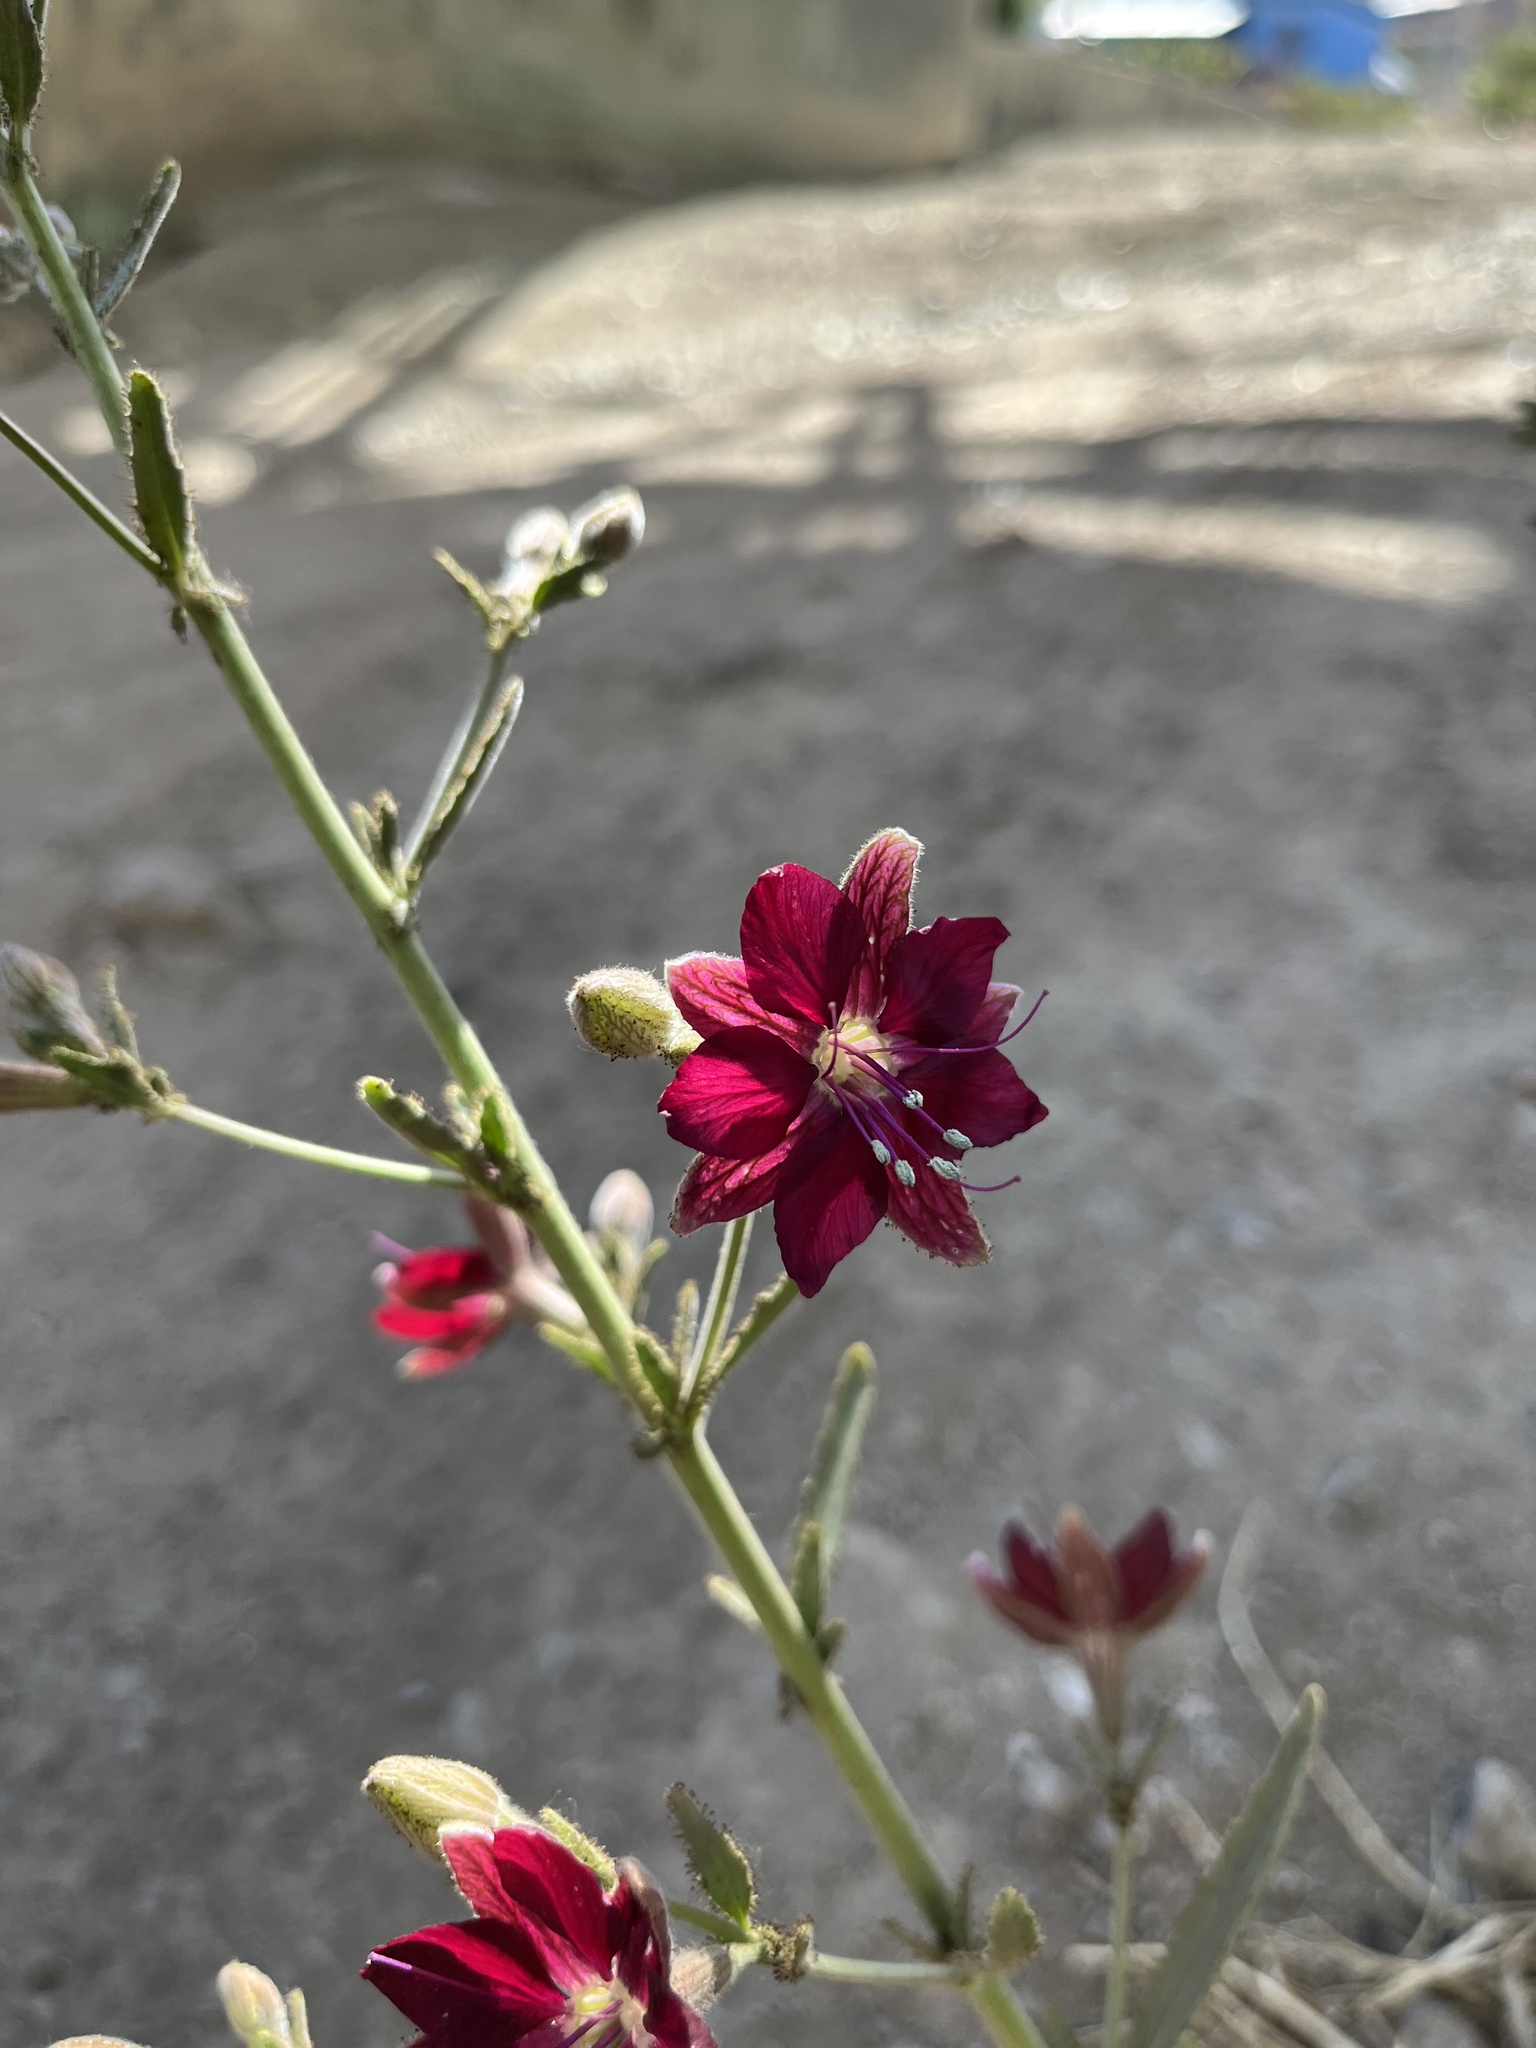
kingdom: Plantae
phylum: Tracheophyta
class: Magnoliopsida
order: Malpighiales
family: Malesherbiaceae
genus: Malesherbia
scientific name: Malesherbia linearifolia
